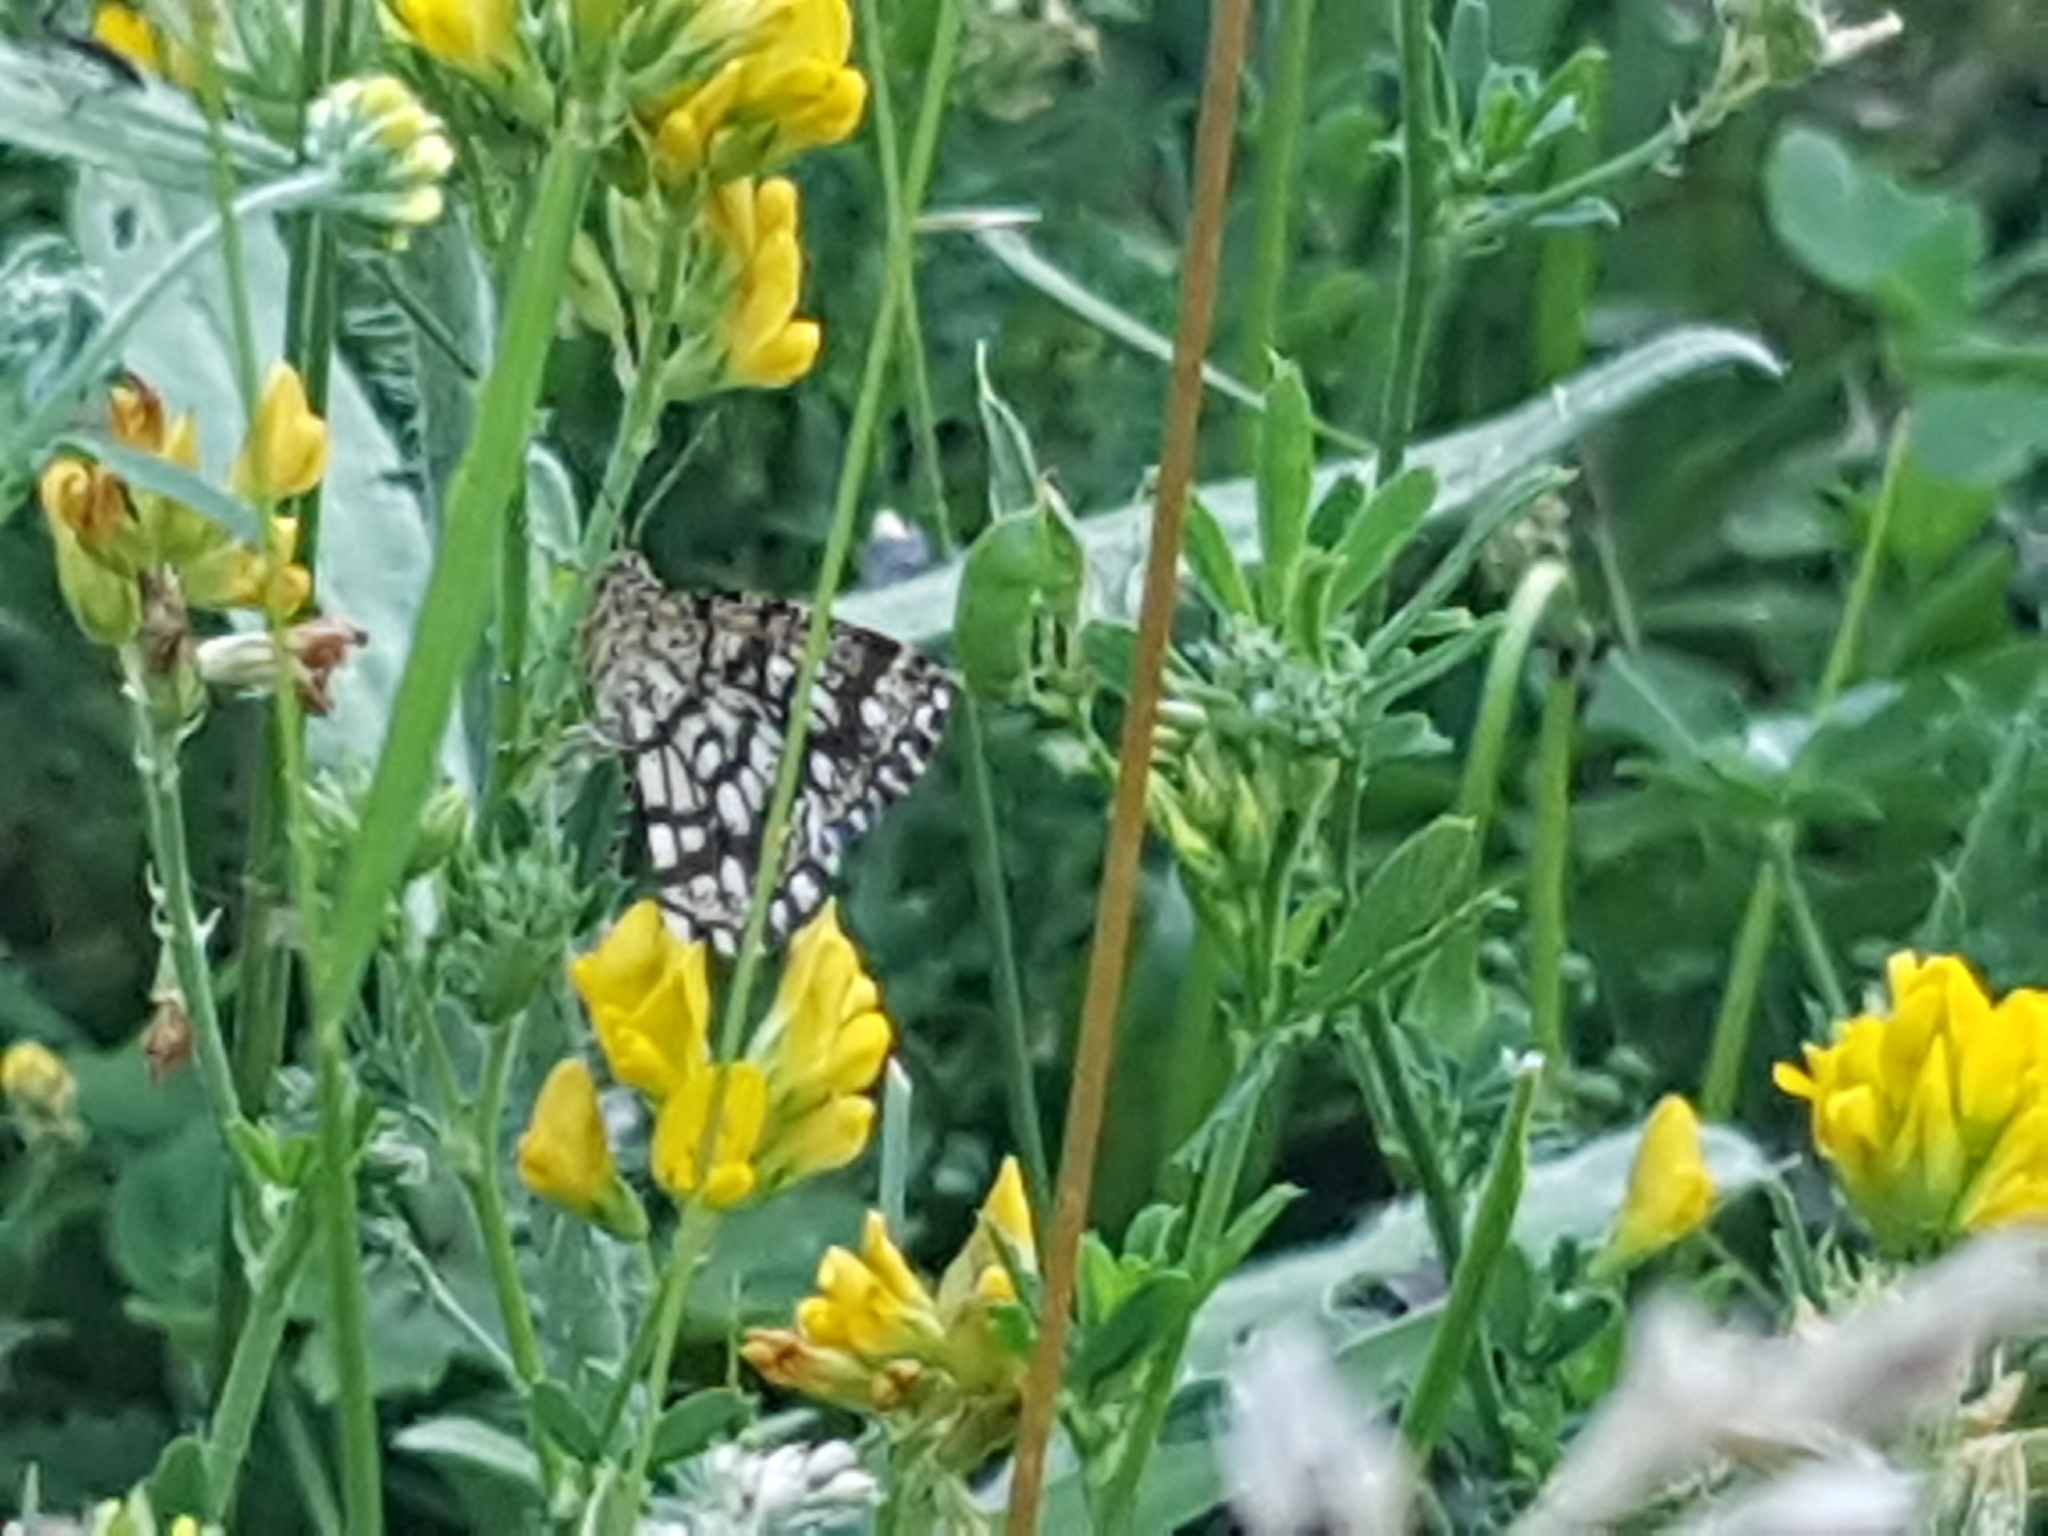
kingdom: Animalia
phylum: Arthropoda
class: Insecta
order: Lepidoptera
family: Geometridae
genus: Chiasmia
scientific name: Chiasmia clathrata
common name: Latticed heath
